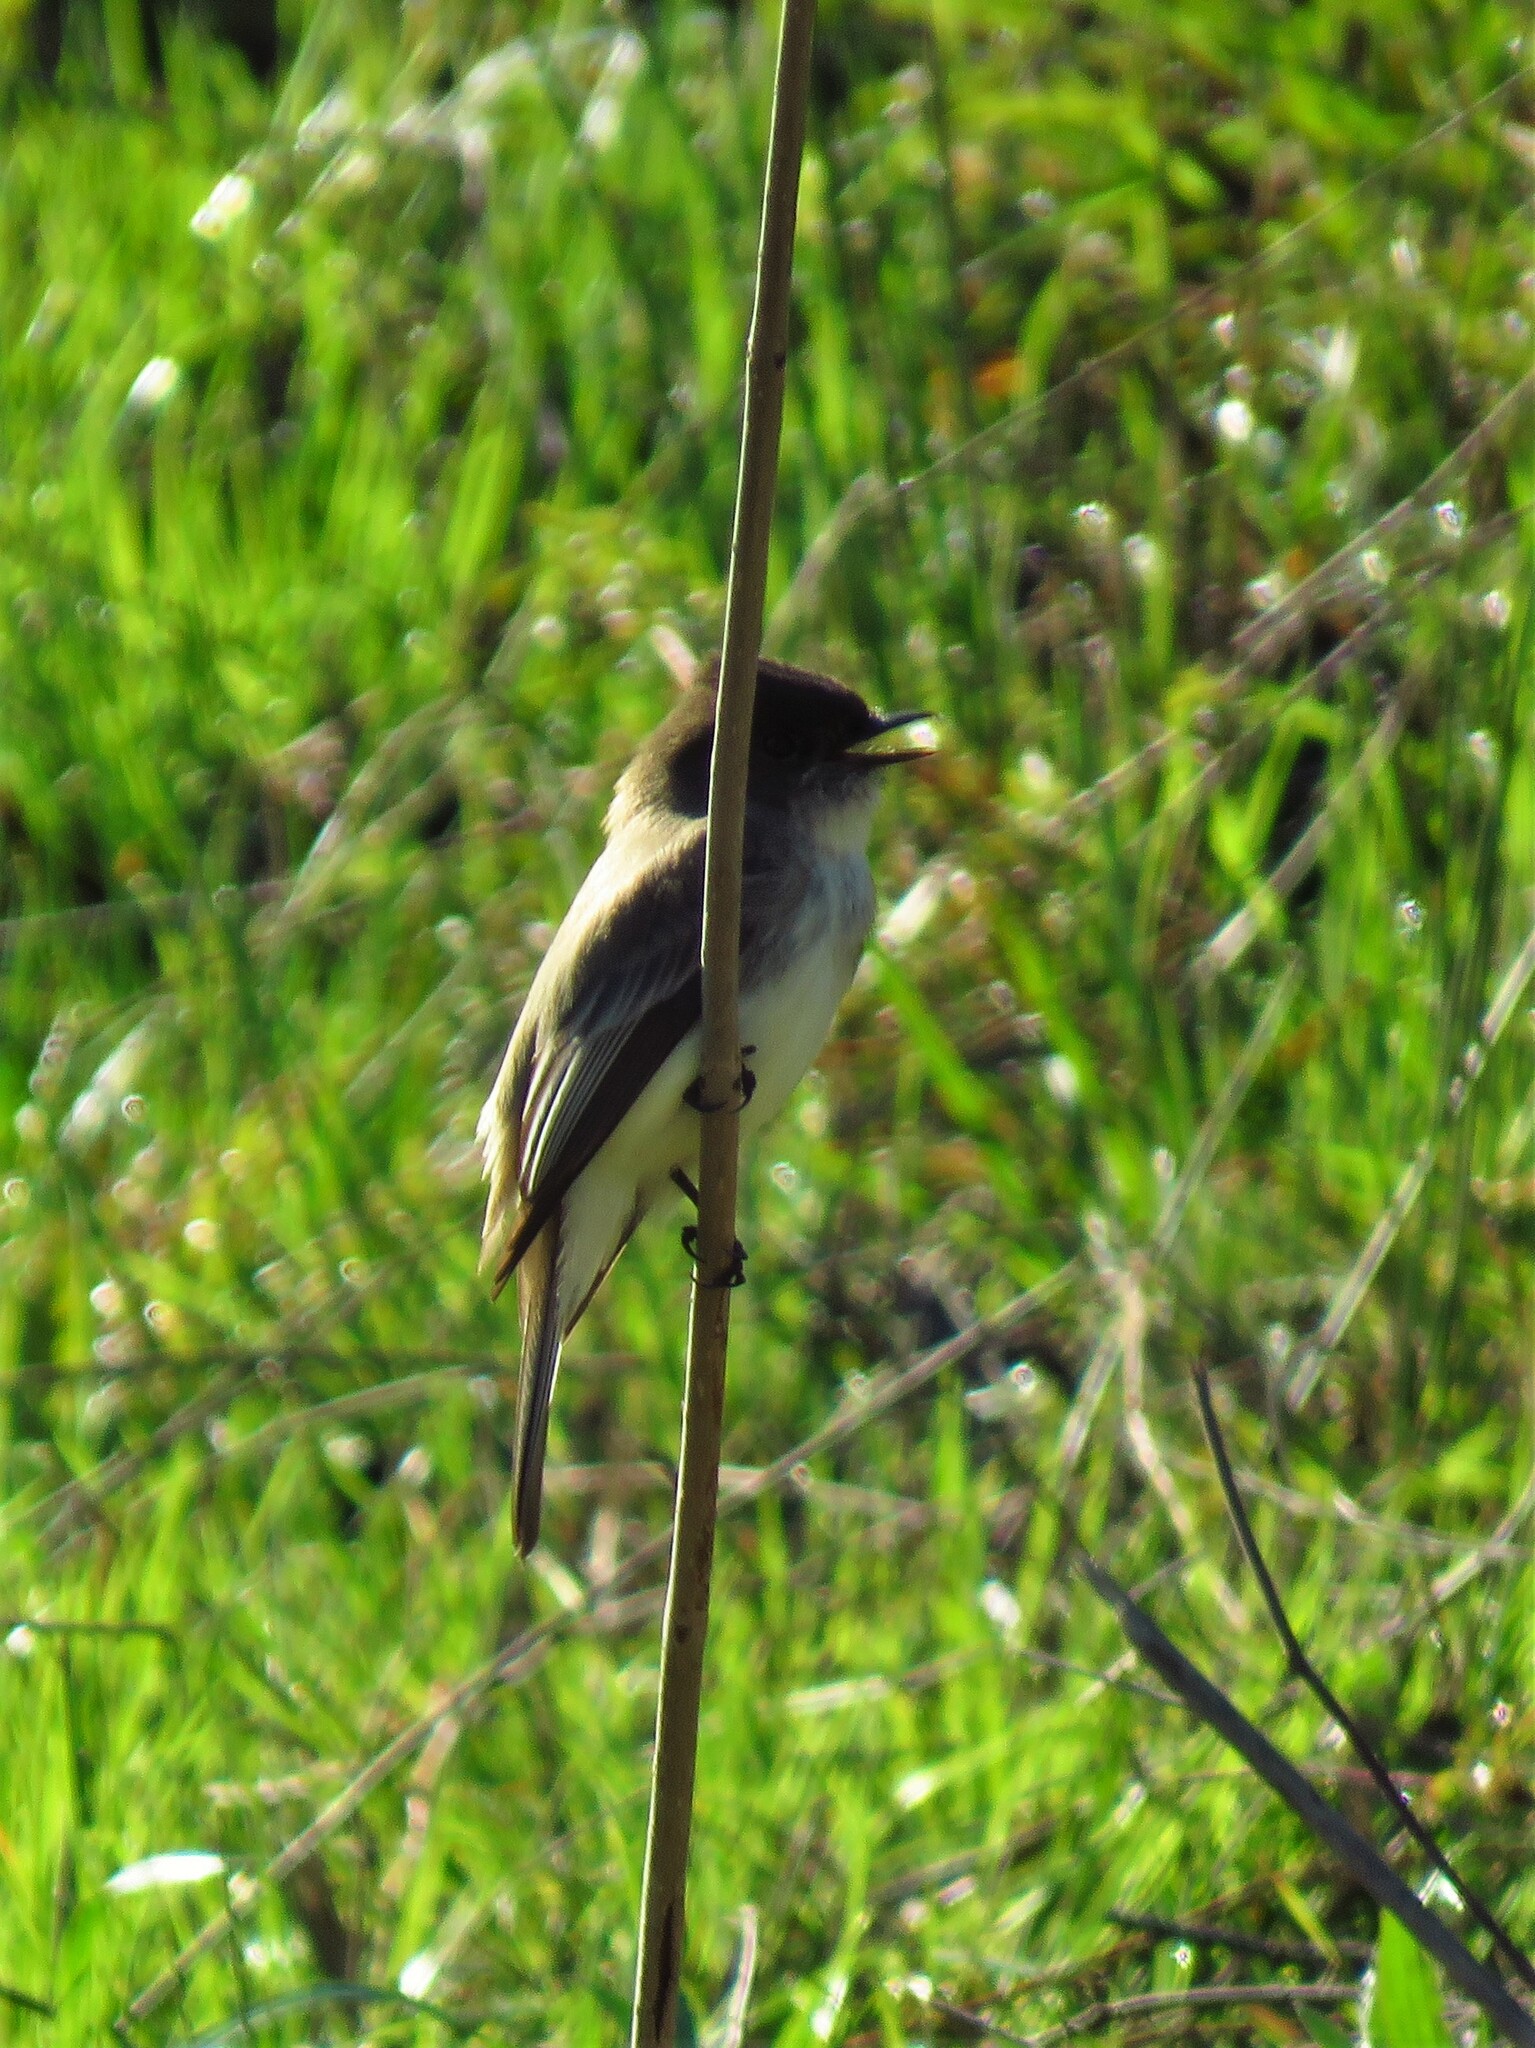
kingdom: Animalia
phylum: Chordata
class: Aves
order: Passeriformes
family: Tyrannidae
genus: Sayornis
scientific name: Sayornis phoebe
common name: Eastern phoebe
